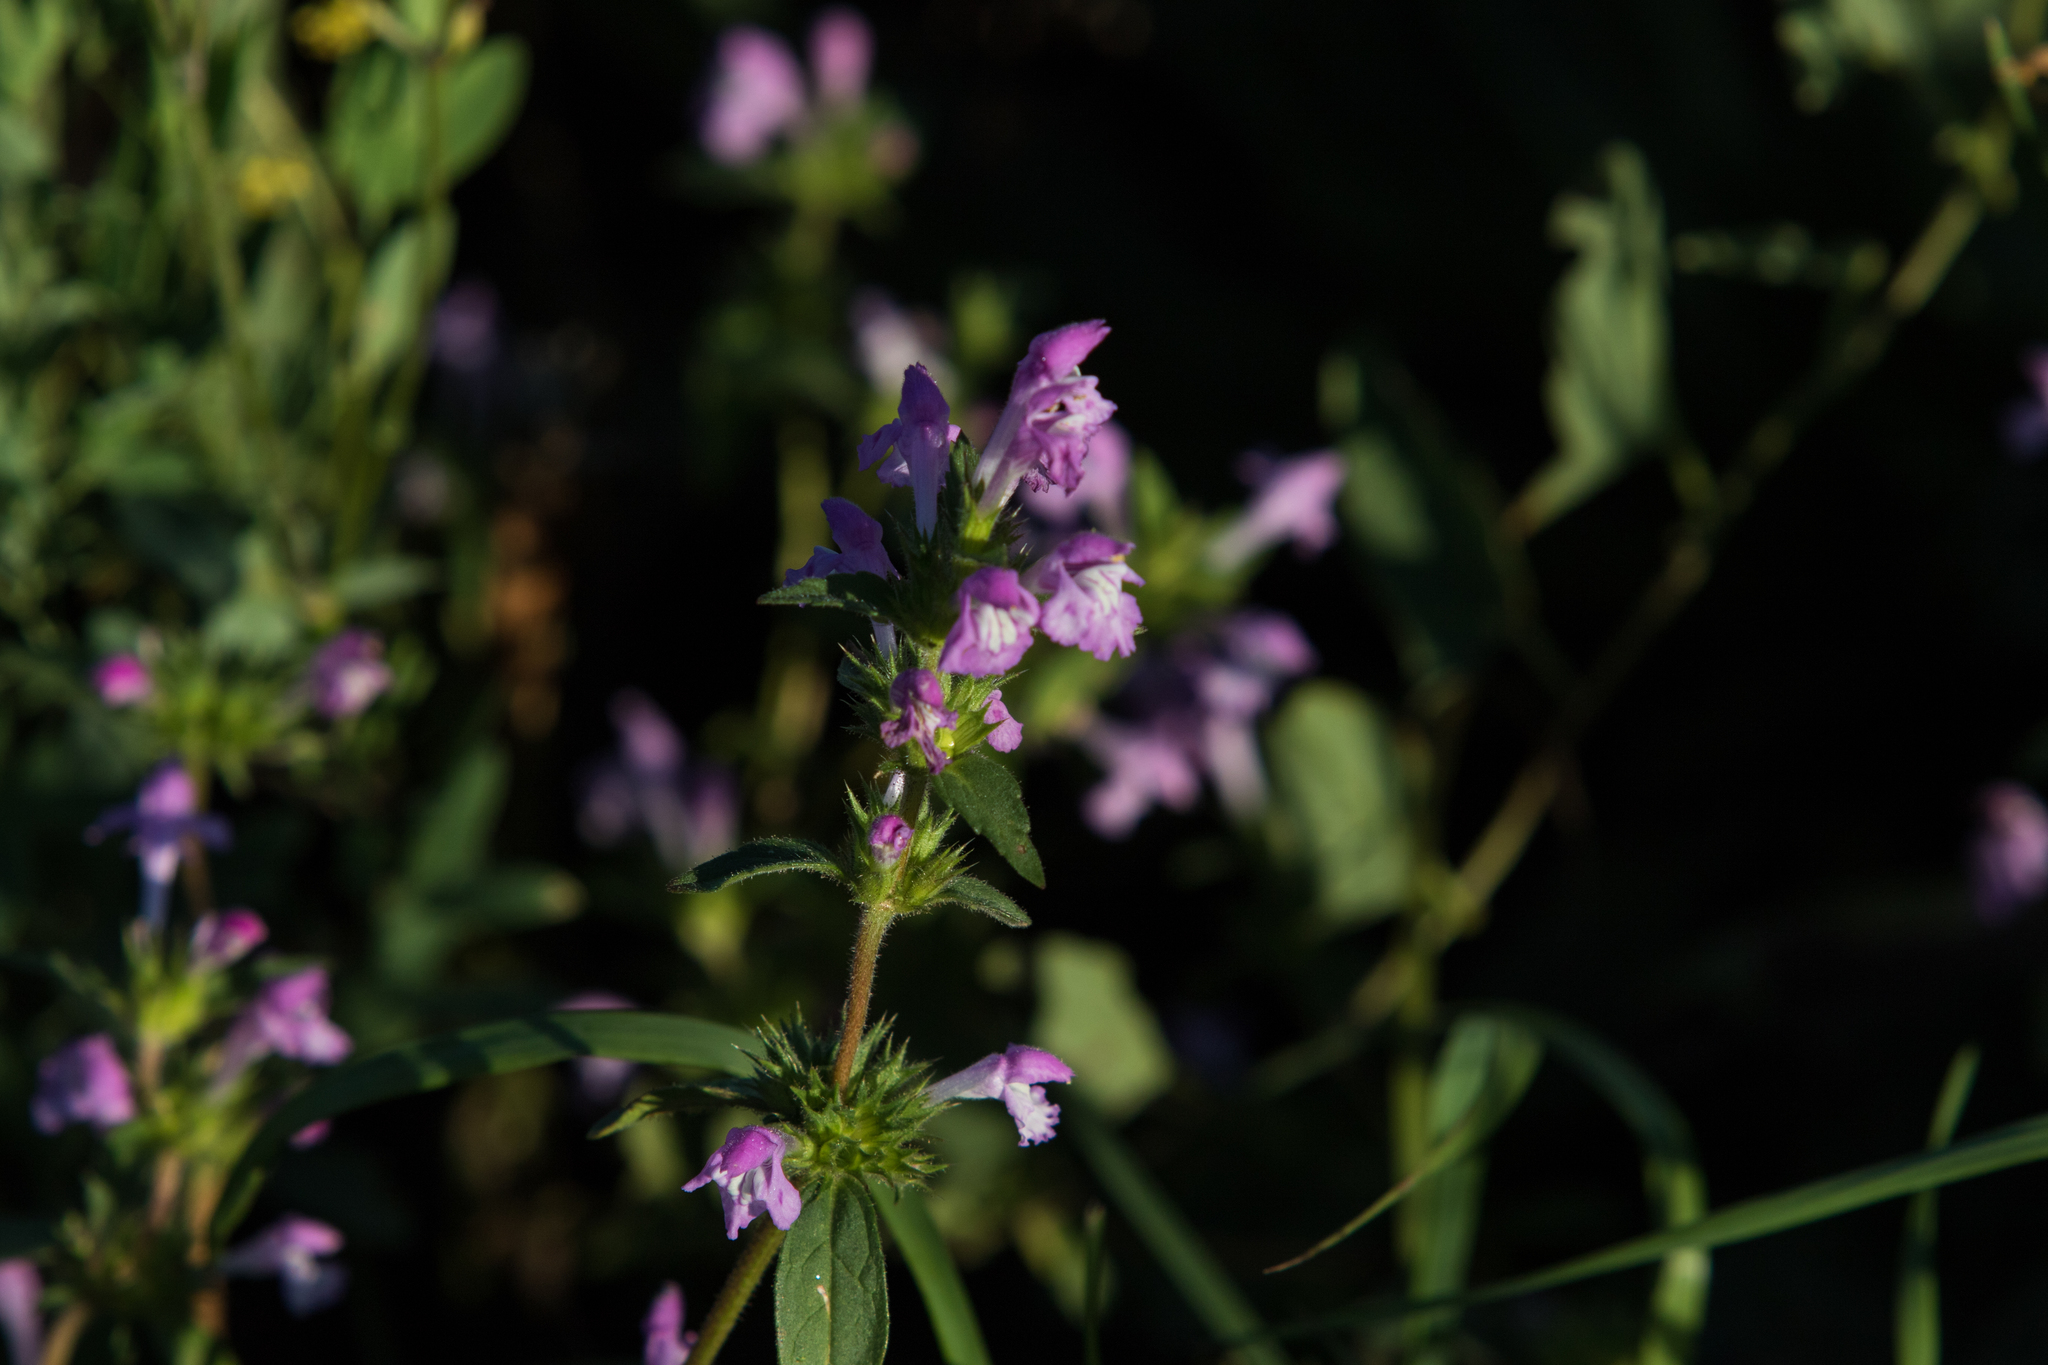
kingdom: Plantae
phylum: Tracheophyta
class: Magnoliopsida
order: Lamiales
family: Lamiaceae
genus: Galeopsis
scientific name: Galeopsis ladanum
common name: Broad-leaved hemp-nettle
